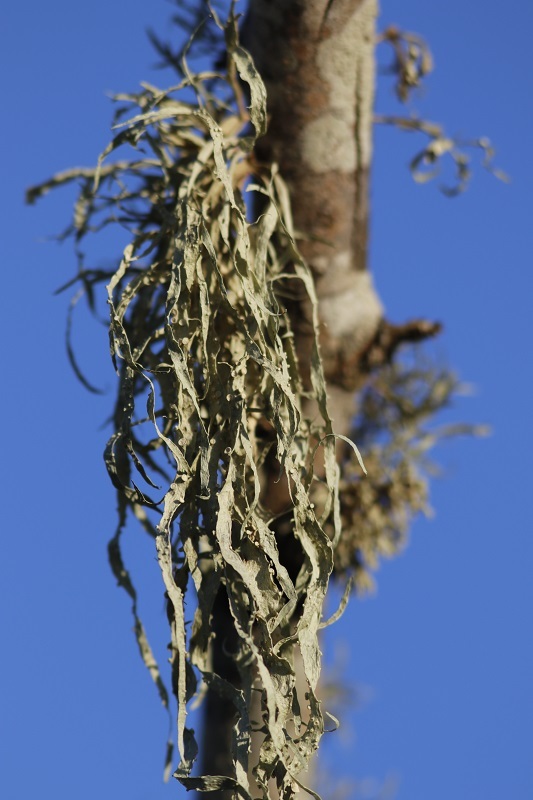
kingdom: Fungi
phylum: Ascomycota
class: Lecanoromycetes
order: Lecanorales
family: Ramalinaceae
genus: Ramalina
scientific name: Ramalina celastri
